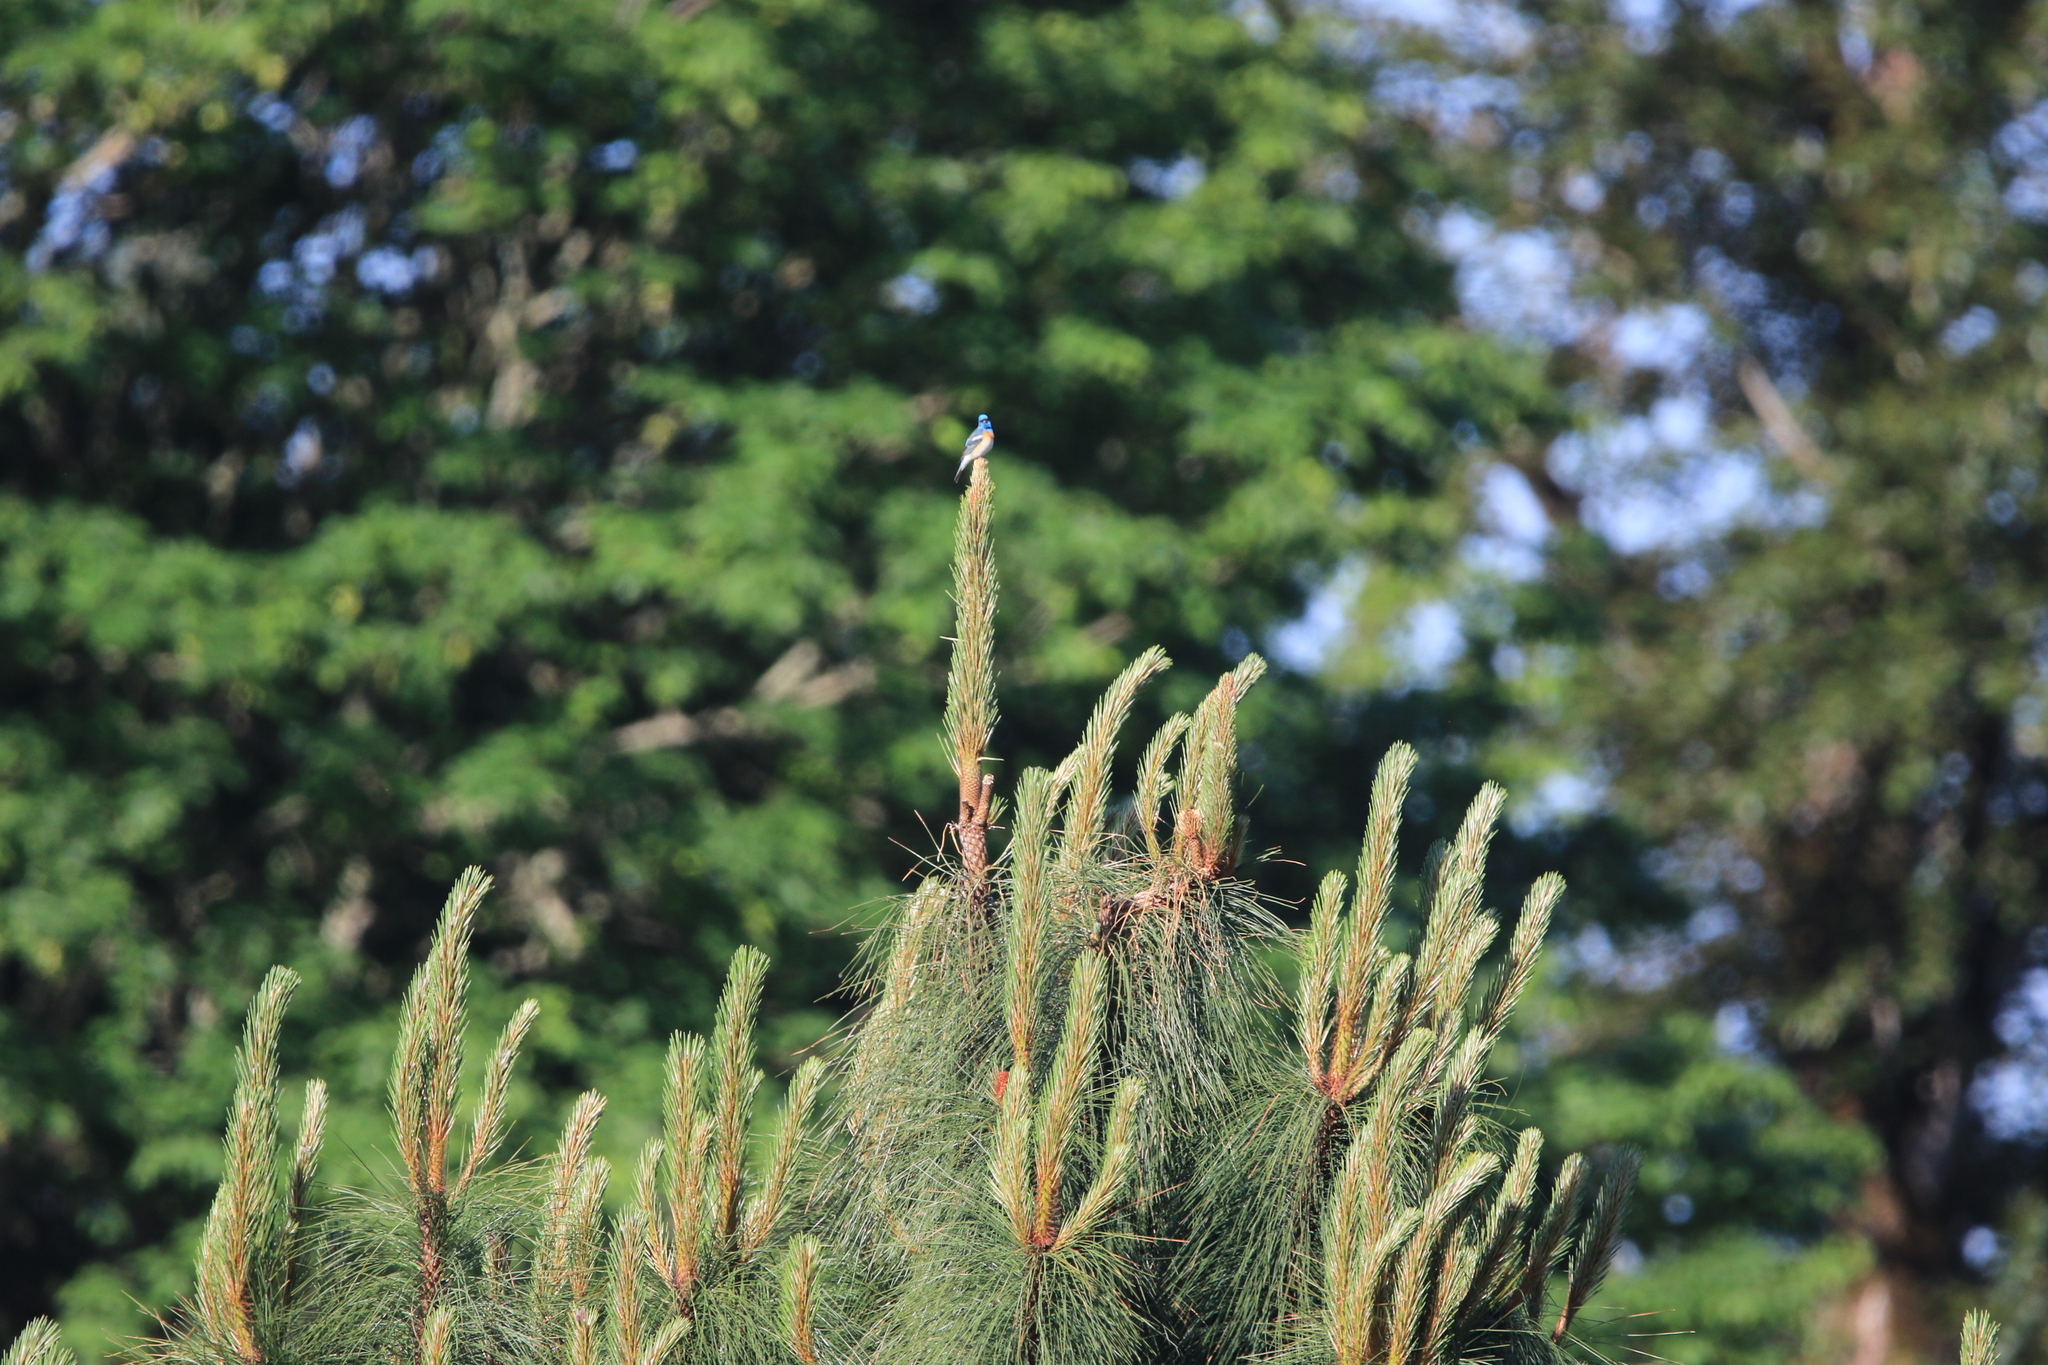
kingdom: Animalia
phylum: Chordata
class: Aves
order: Passeriformes
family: Cardinalidae
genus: Passerina
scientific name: Passerina amoena
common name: Lazuli bunting
